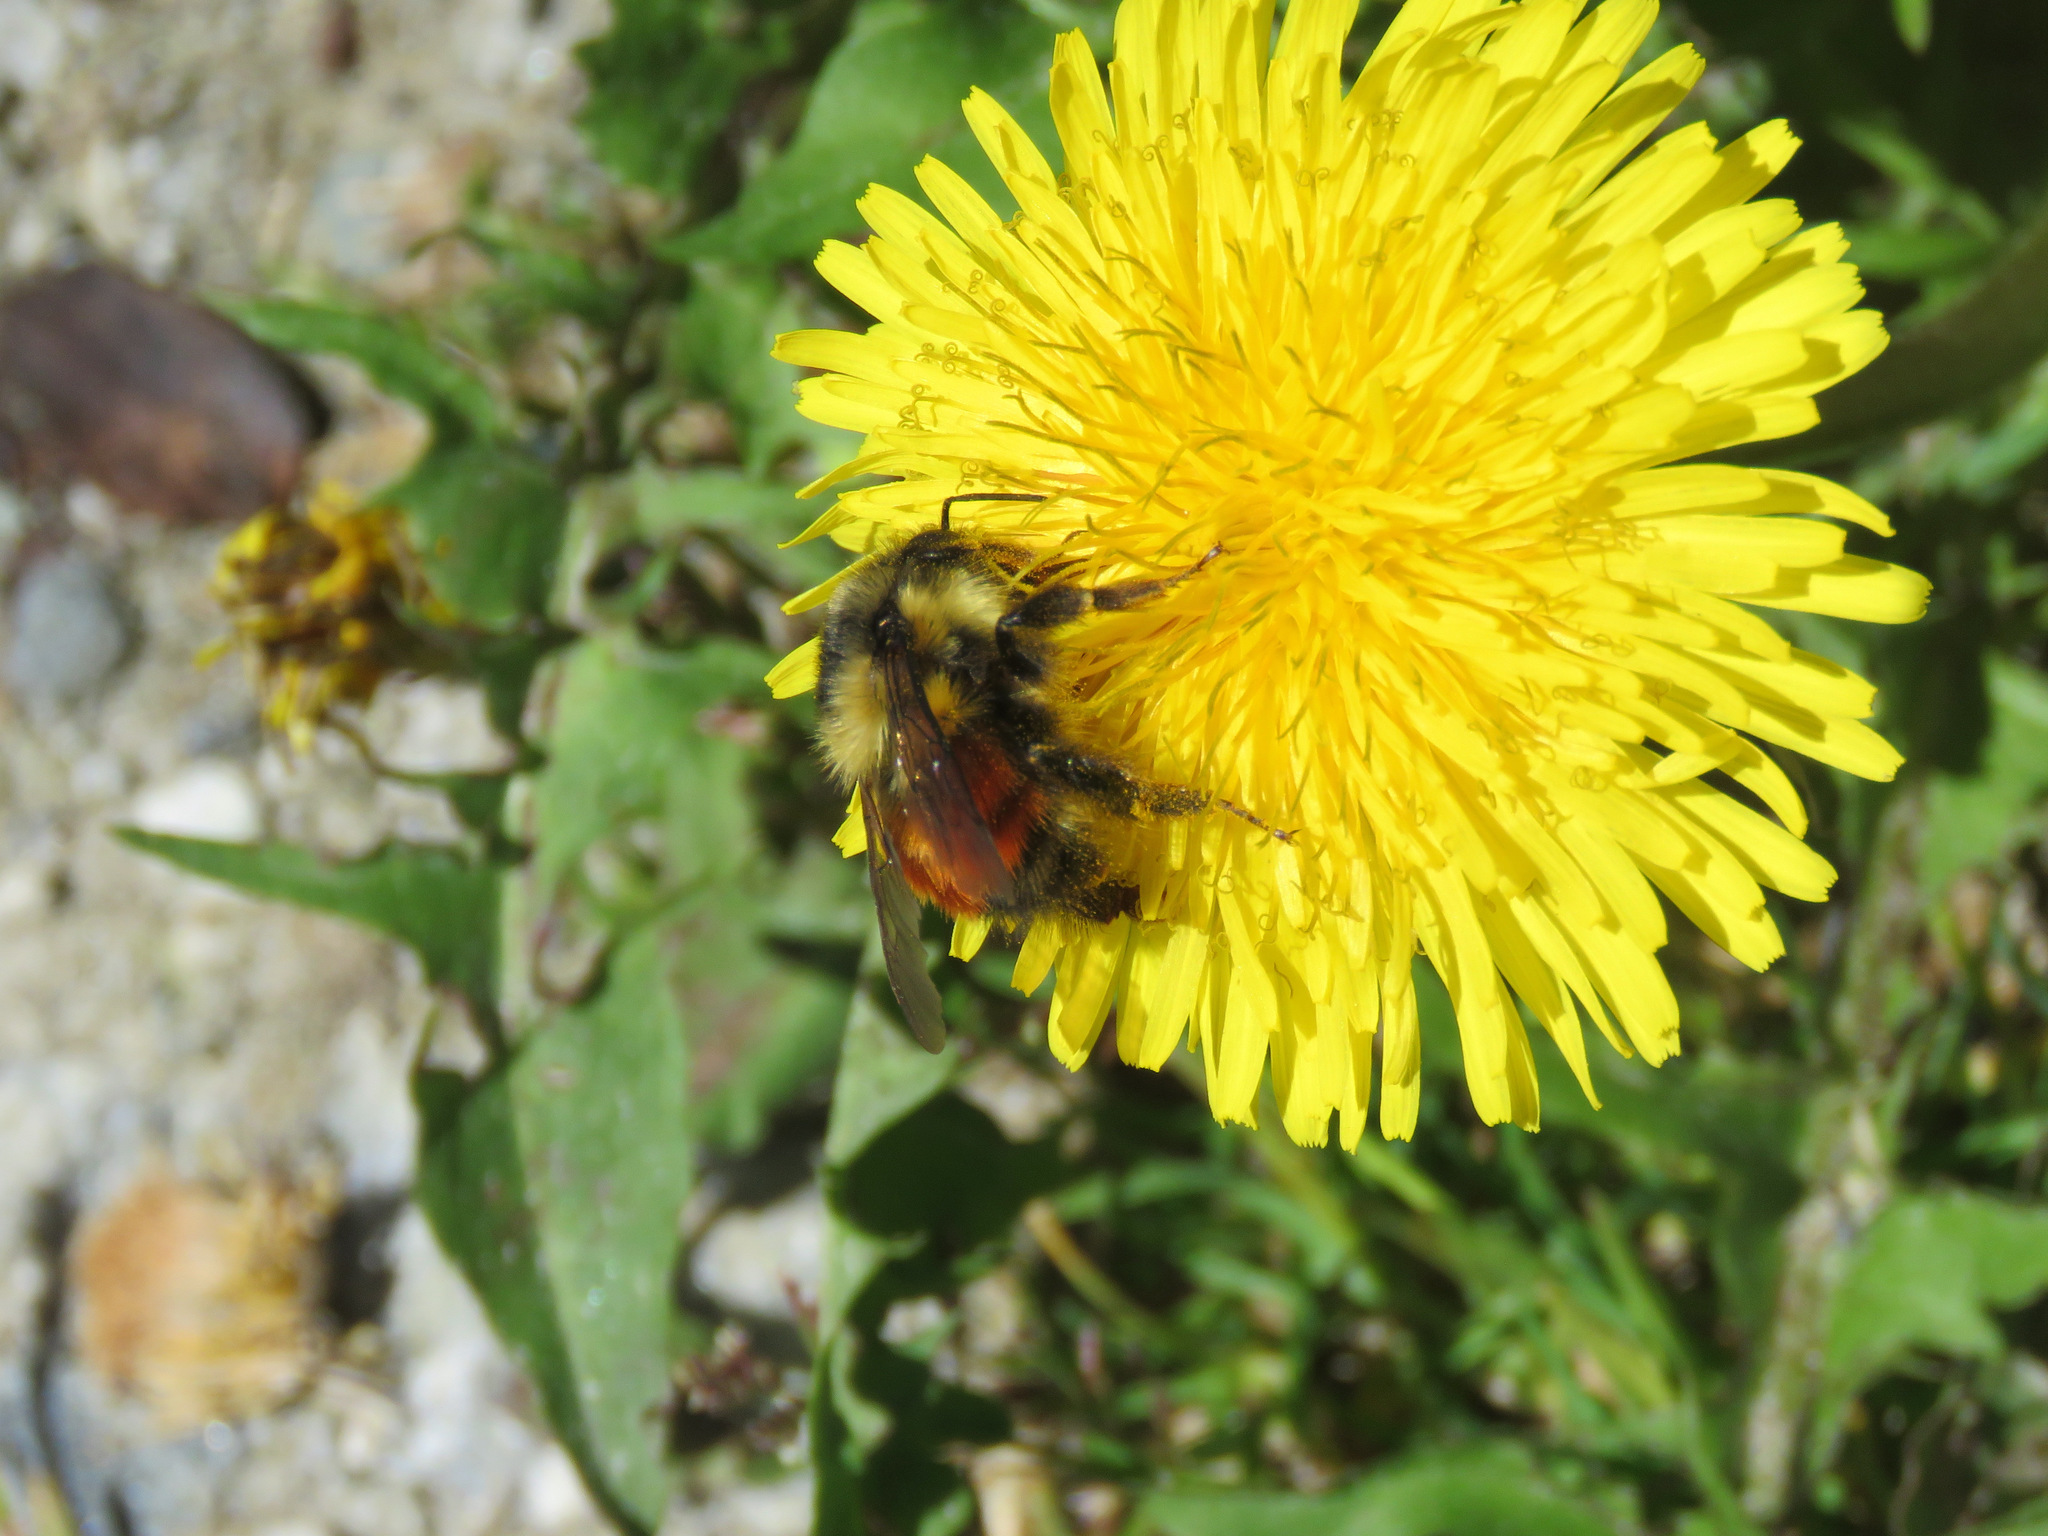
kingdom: Animalia
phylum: Arthropoda
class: Insecta
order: Hymenoptera
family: Apidae
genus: Bombus
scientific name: Bombus melanopygus
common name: Black tail bumble bee
